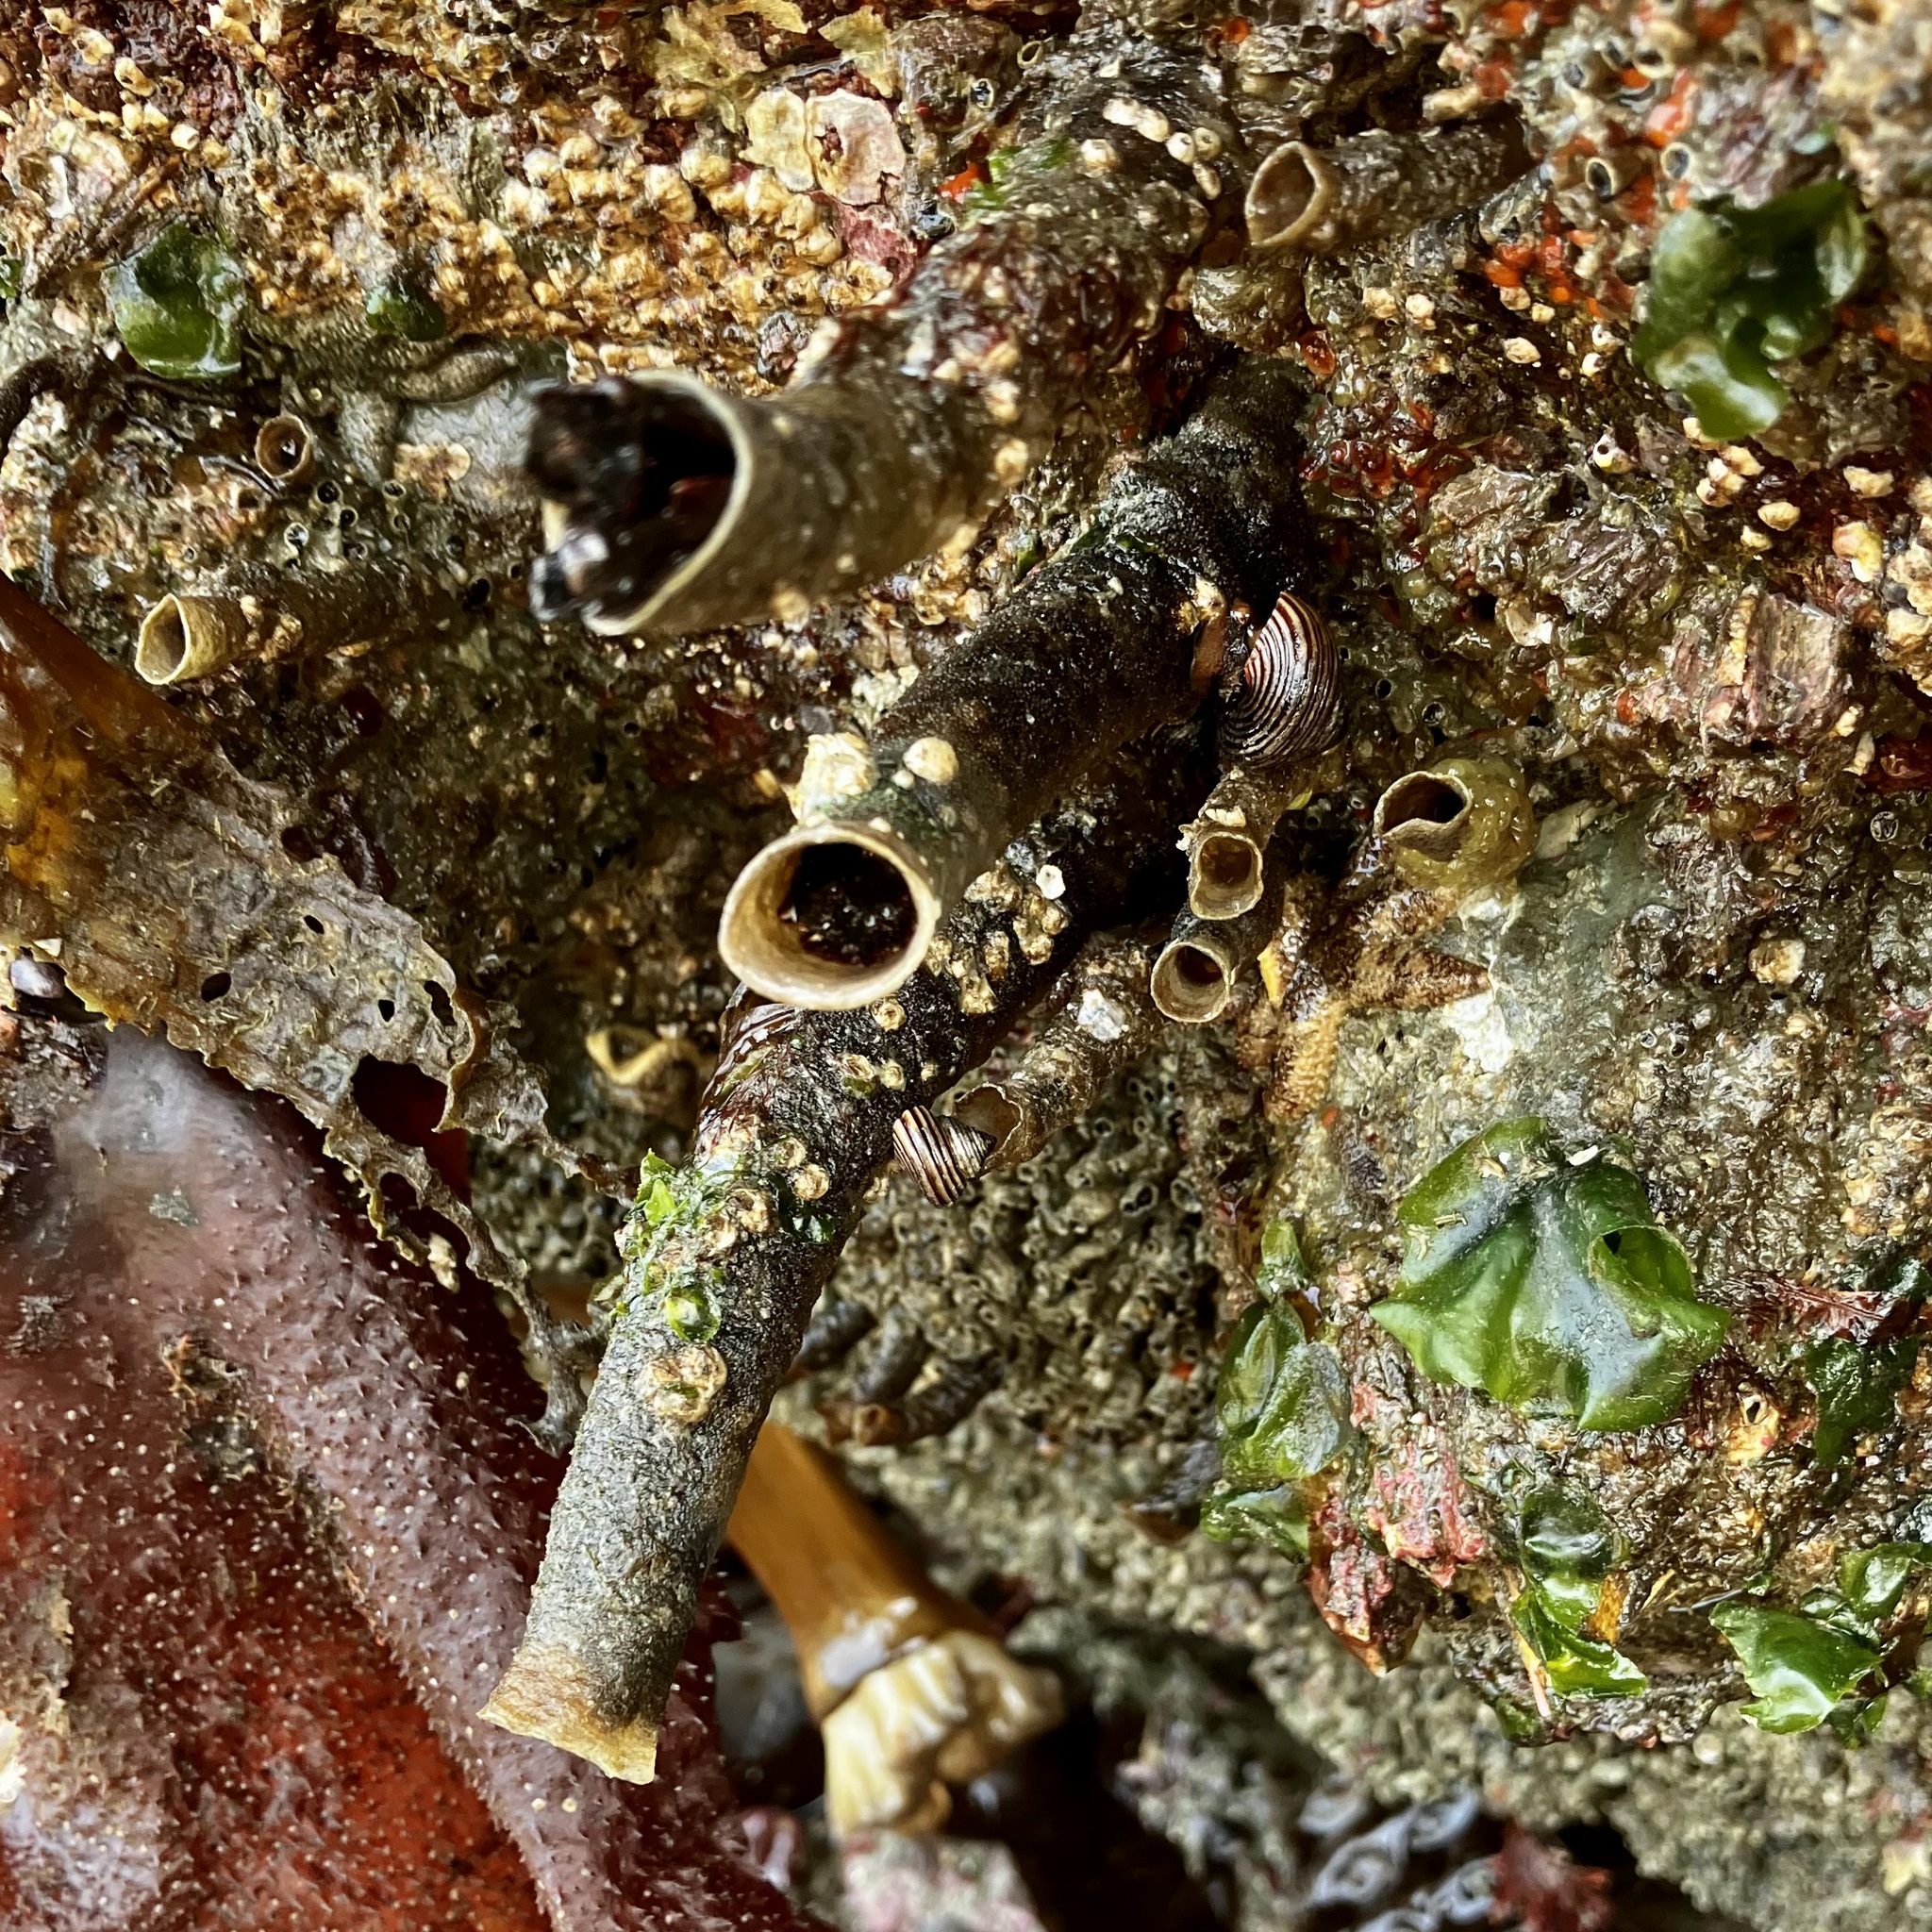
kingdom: Animalia
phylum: Annelida
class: Polychaeta
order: Sabellida
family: Sabellidae
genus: Eudistylia
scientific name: Eudistylia vancouveri
